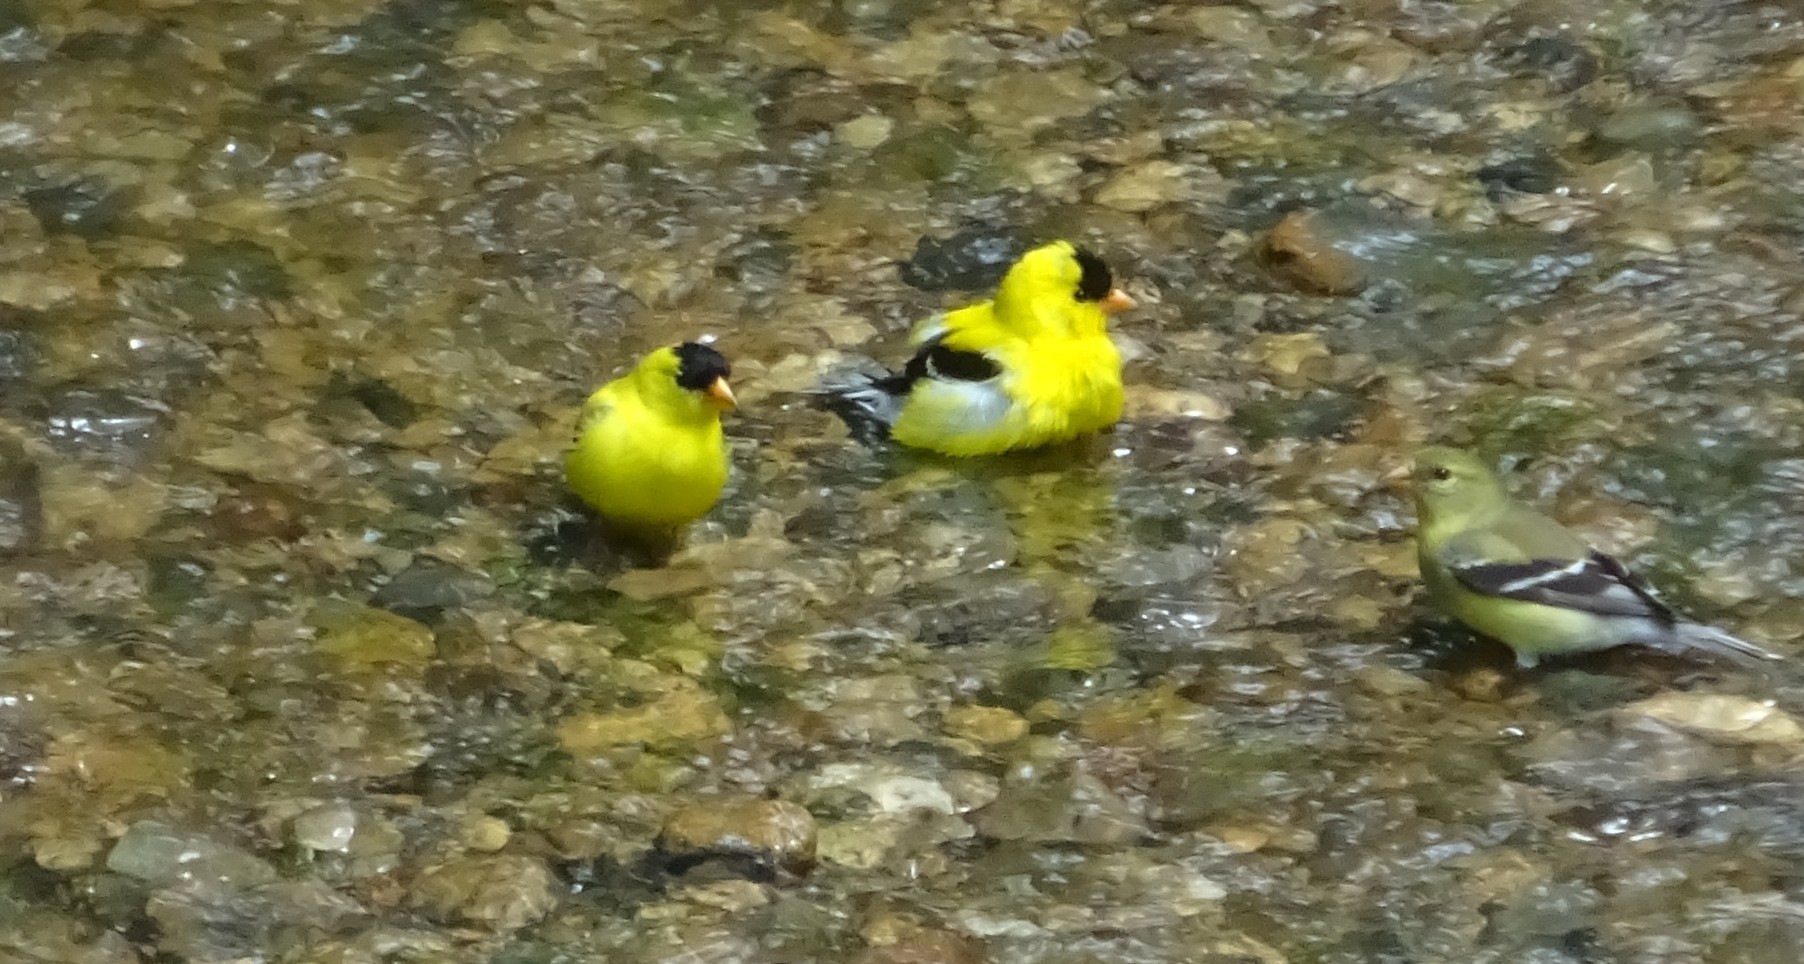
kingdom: Animalia
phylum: Chordata
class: Aves
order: Passeriformes
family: Fringillidae
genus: Spinus
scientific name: Spinus tristis
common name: American goldfinch
